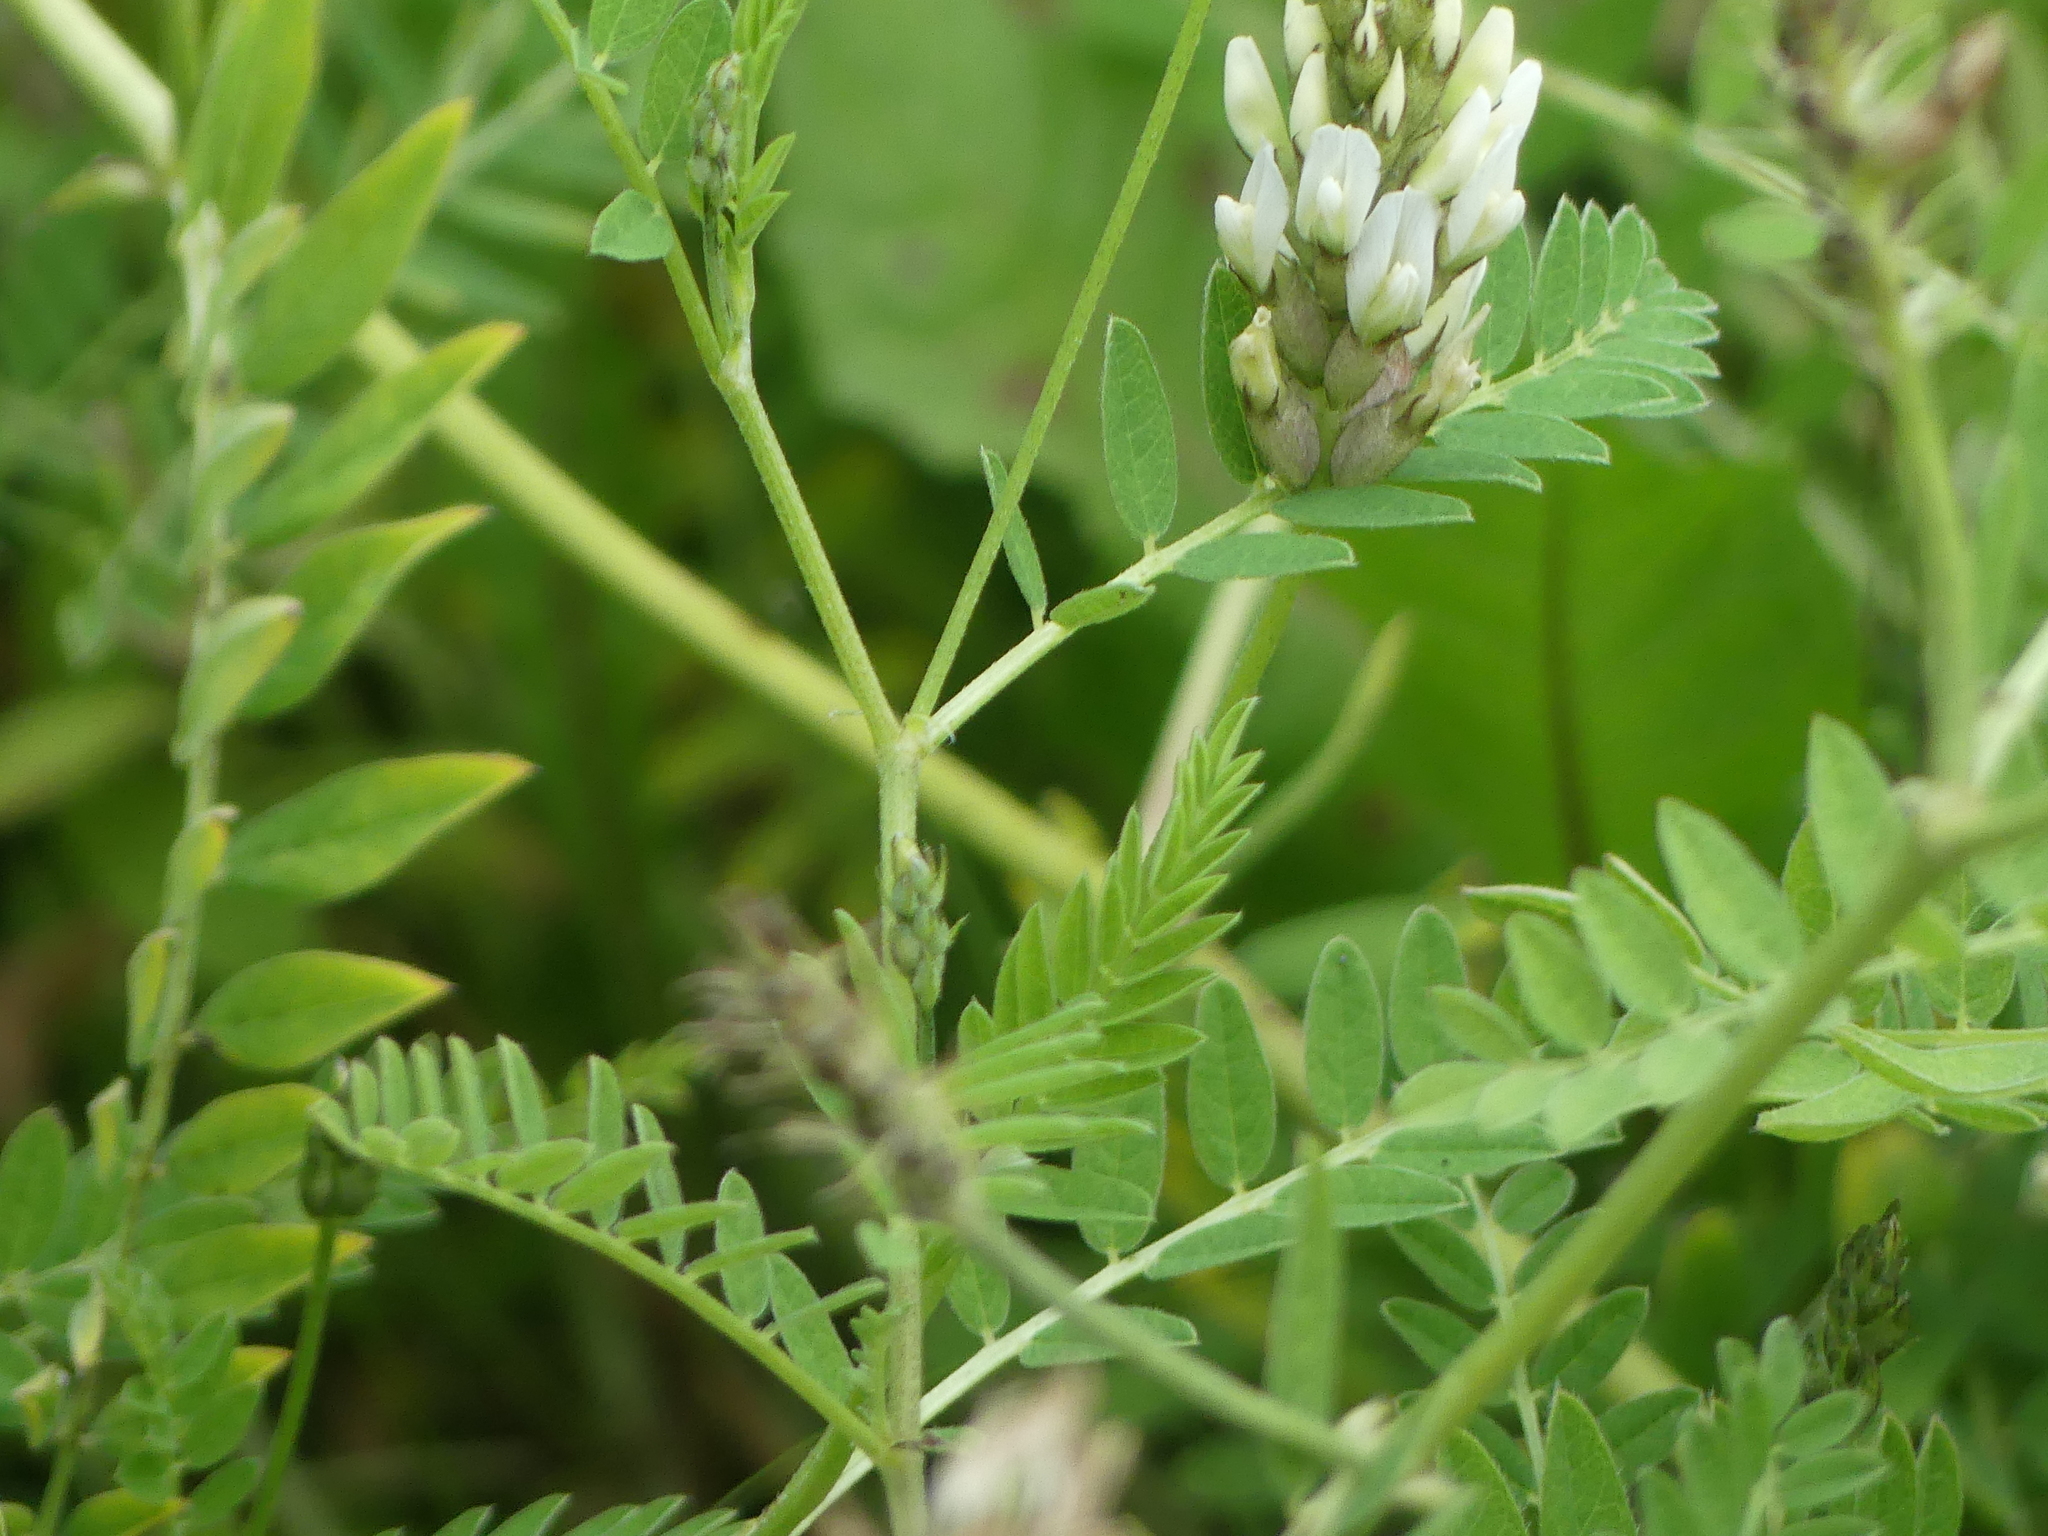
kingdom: Plantae
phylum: Tracheophyta
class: Magnoliopsida
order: Fabales
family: Fabaceae
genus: Astragalus
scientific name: Astragalus cicer
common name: Chick-pea milk-vetch
